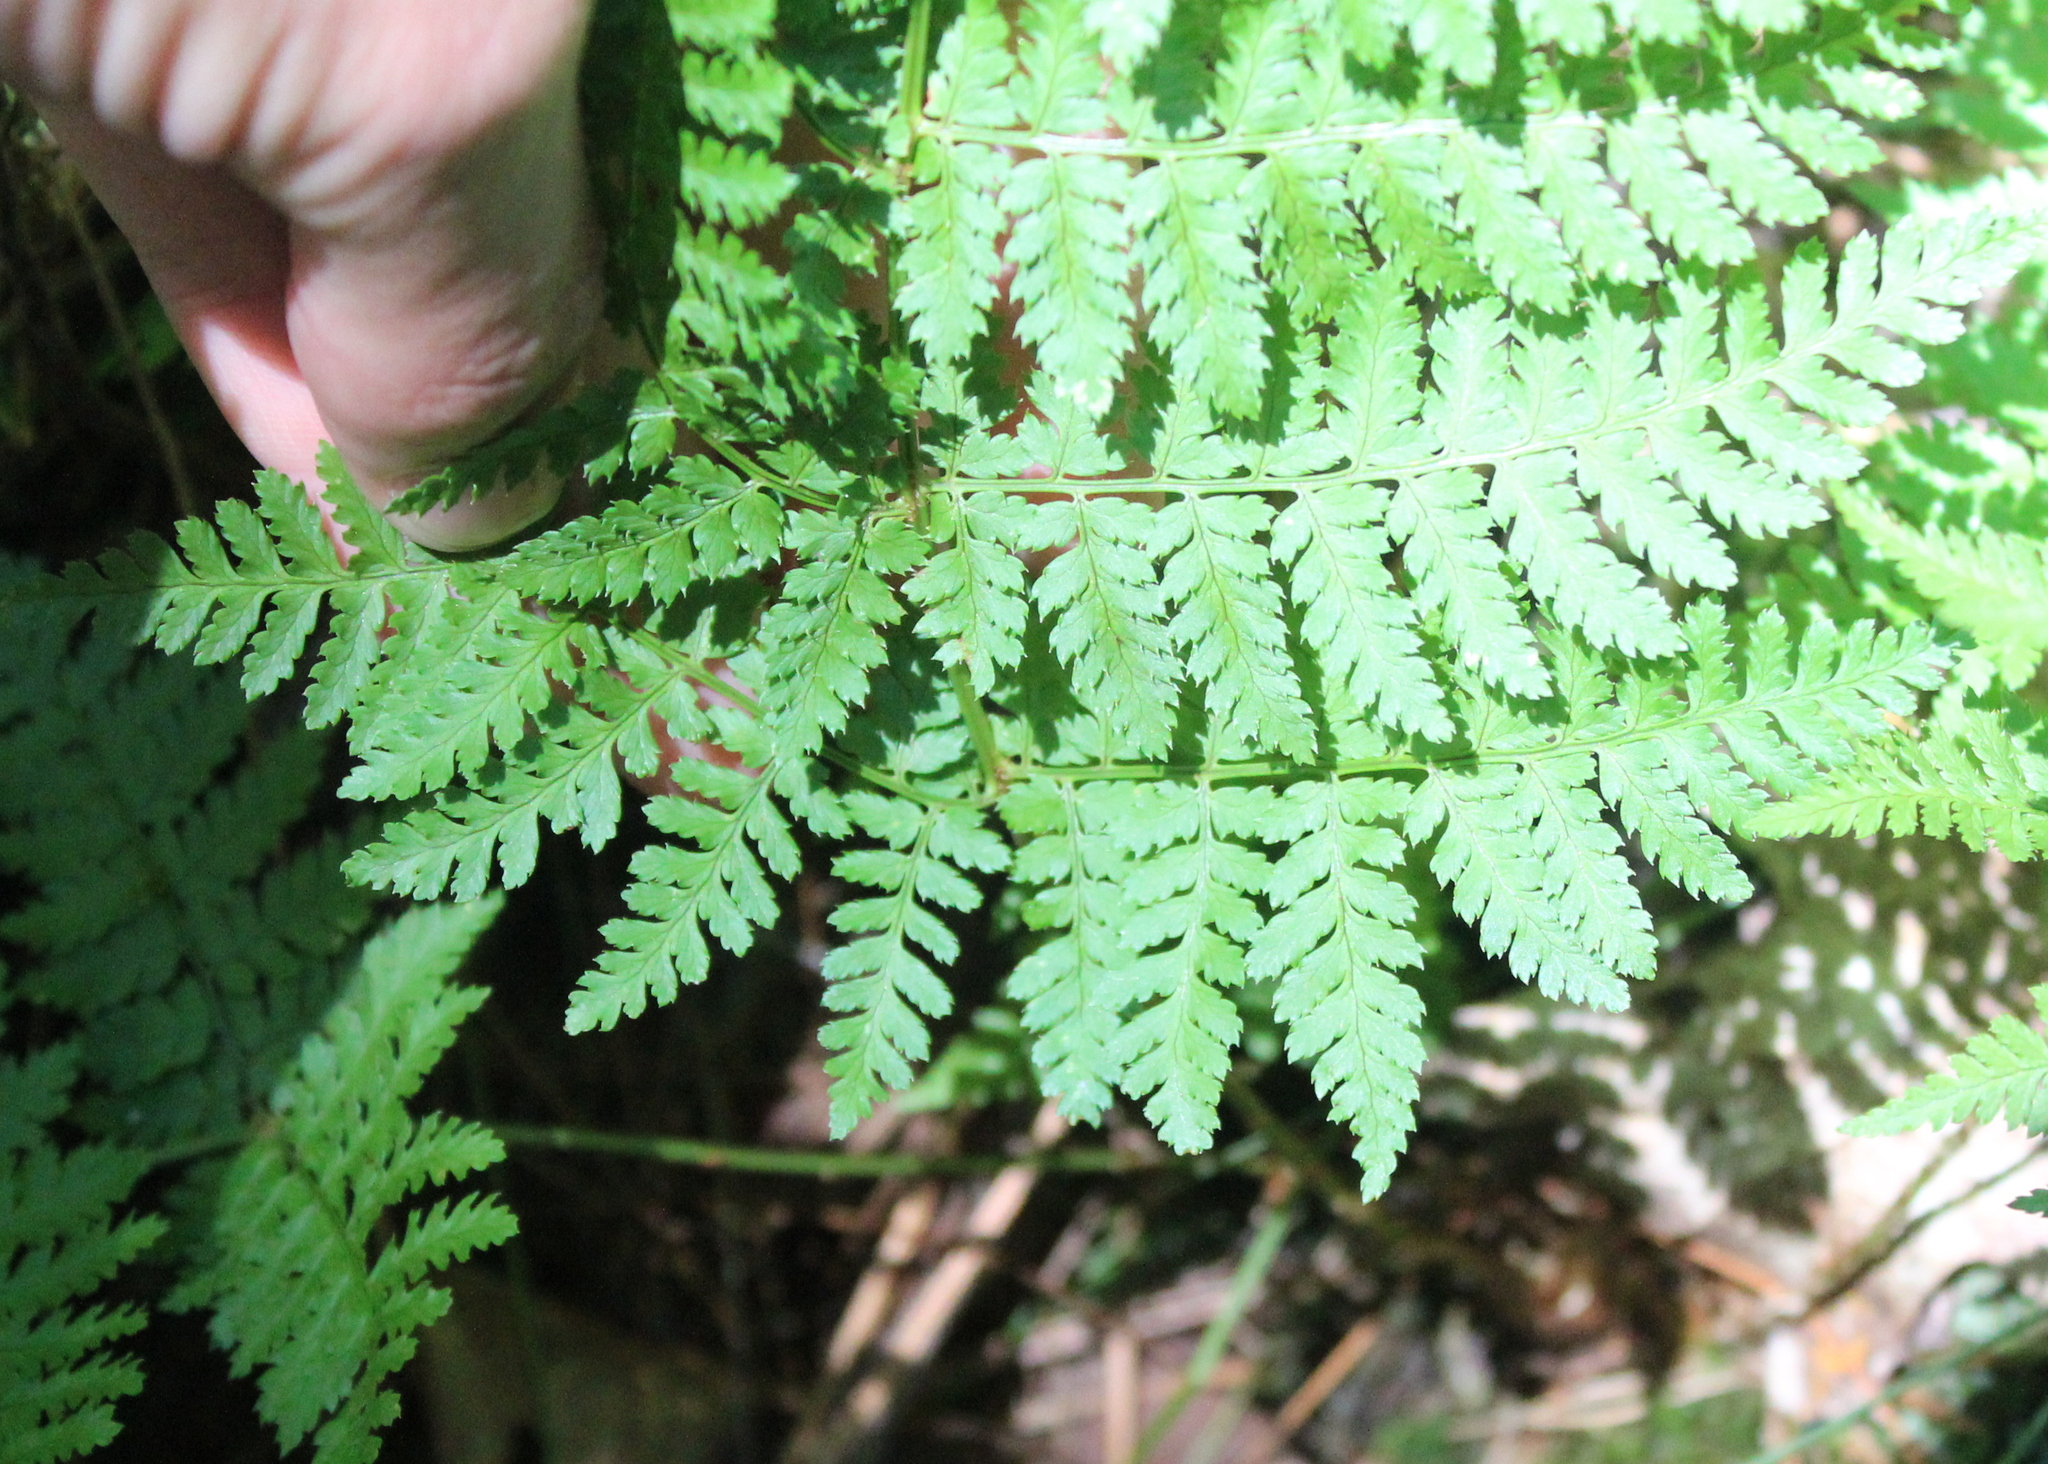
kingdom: Plantae
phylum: Tracheophyta
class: Polypodiopsida
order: Polypodiales
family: Dryopteridaceae
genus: Dryopteris
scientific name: Dryopteris intermedia
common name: Evergreen wood fern
